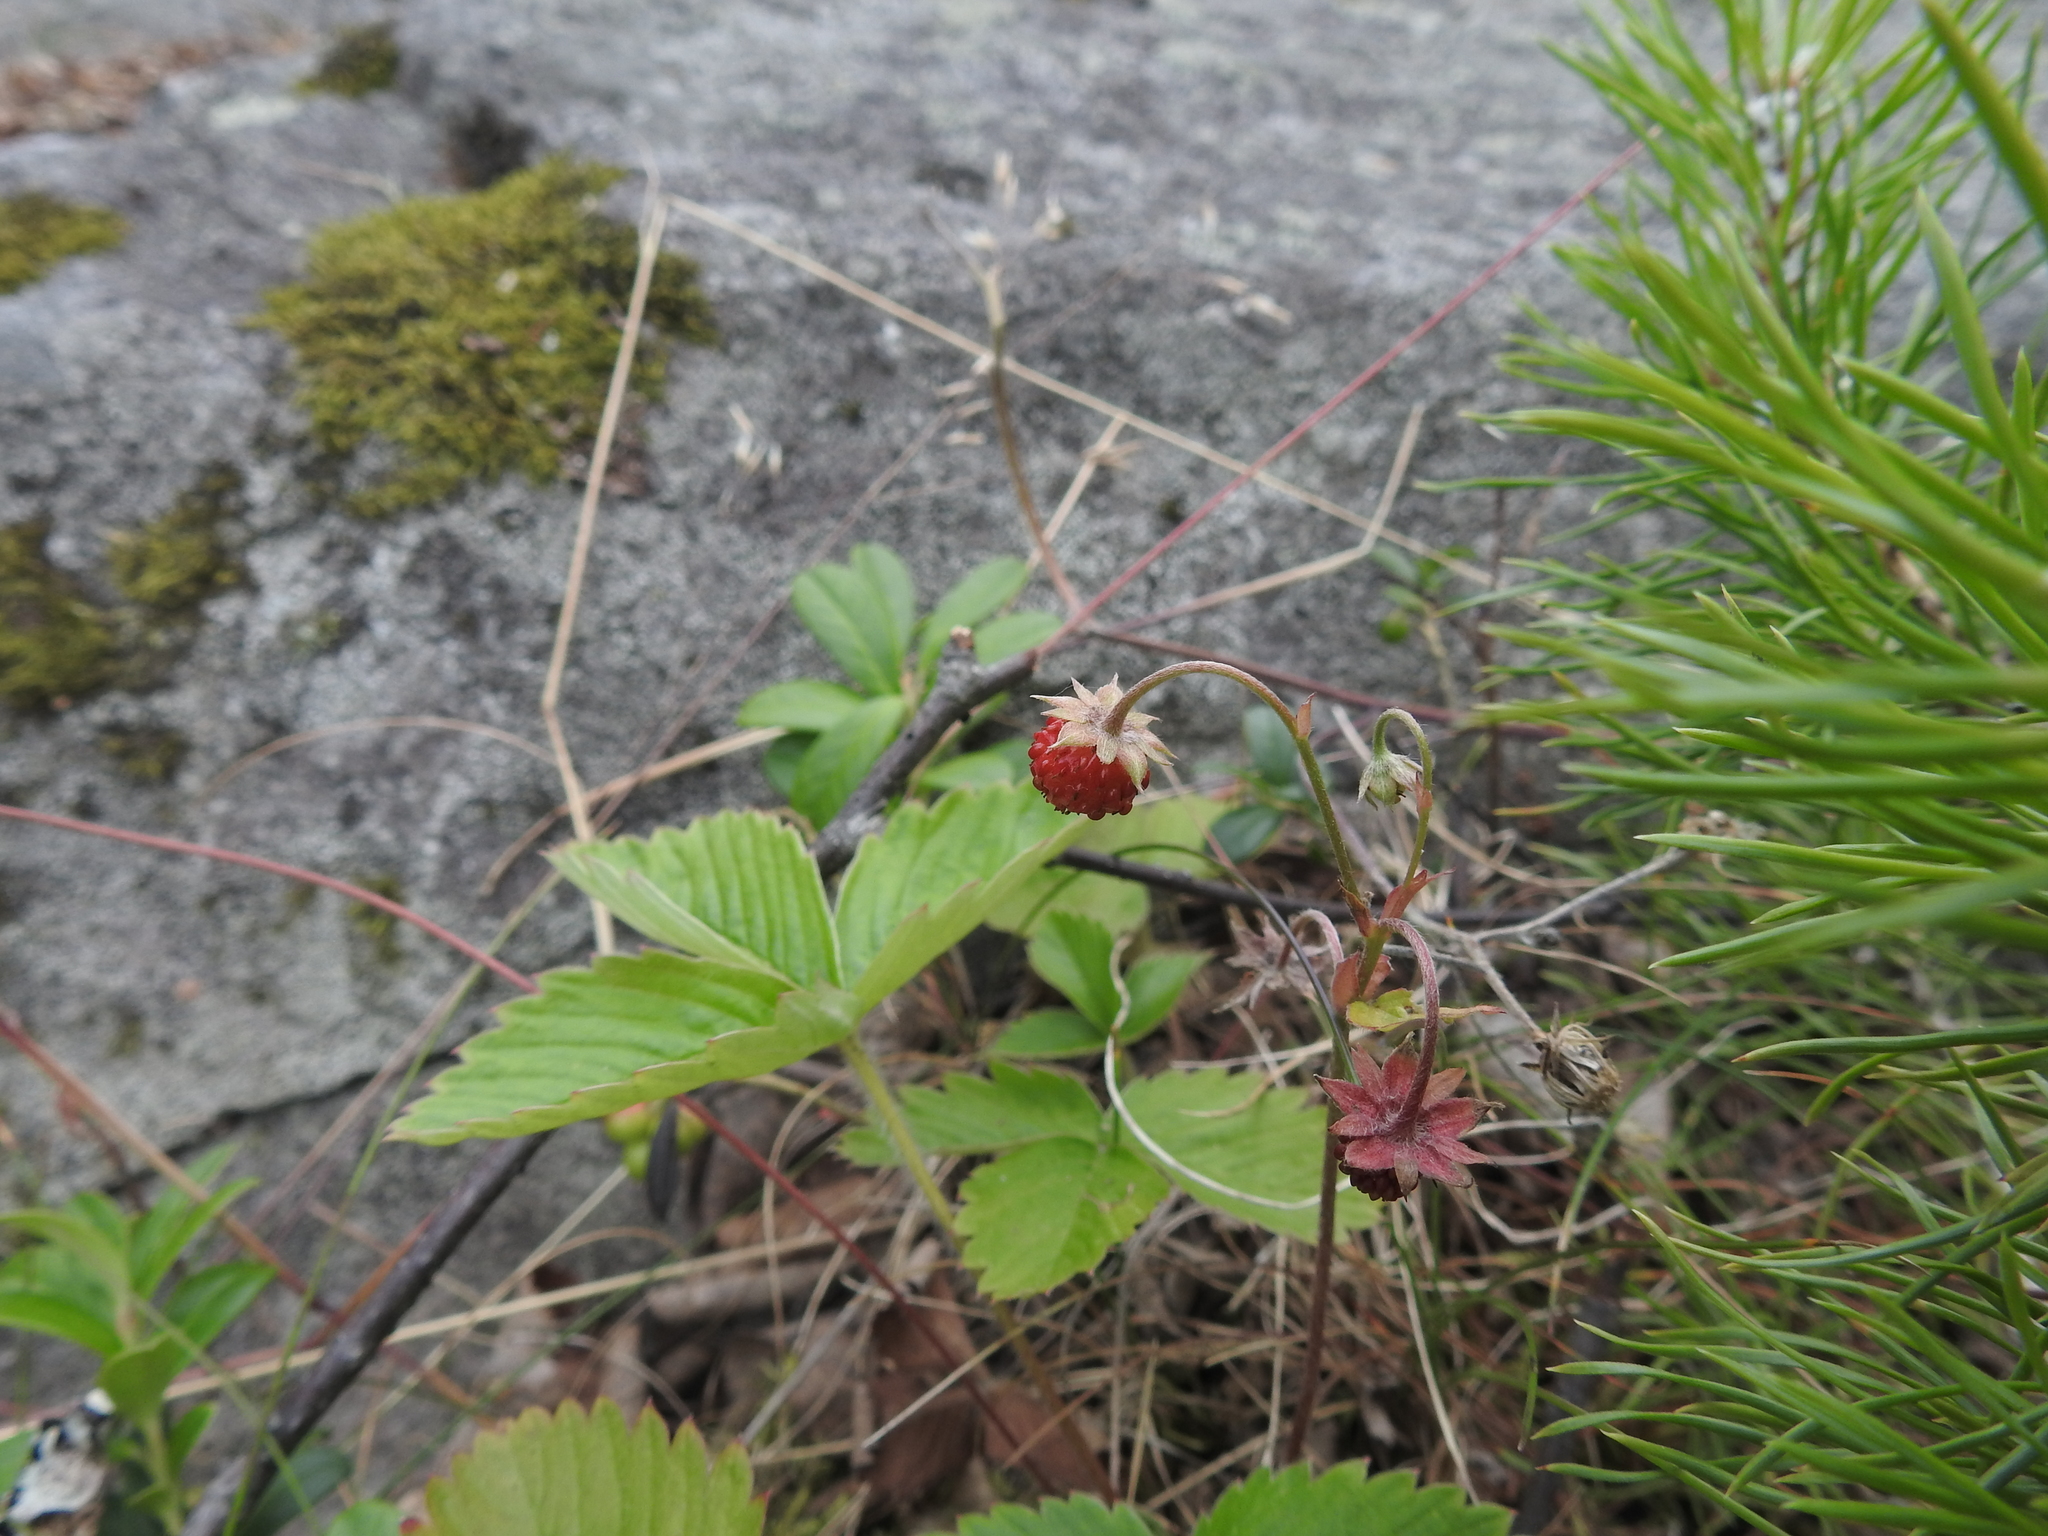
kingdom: Plantae
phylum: Tracheophyta
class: Magnoliopsida
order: Rosales
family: Rosaceae
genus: Fragaria
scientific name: Fragaria vesca
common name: Wild strawberry
